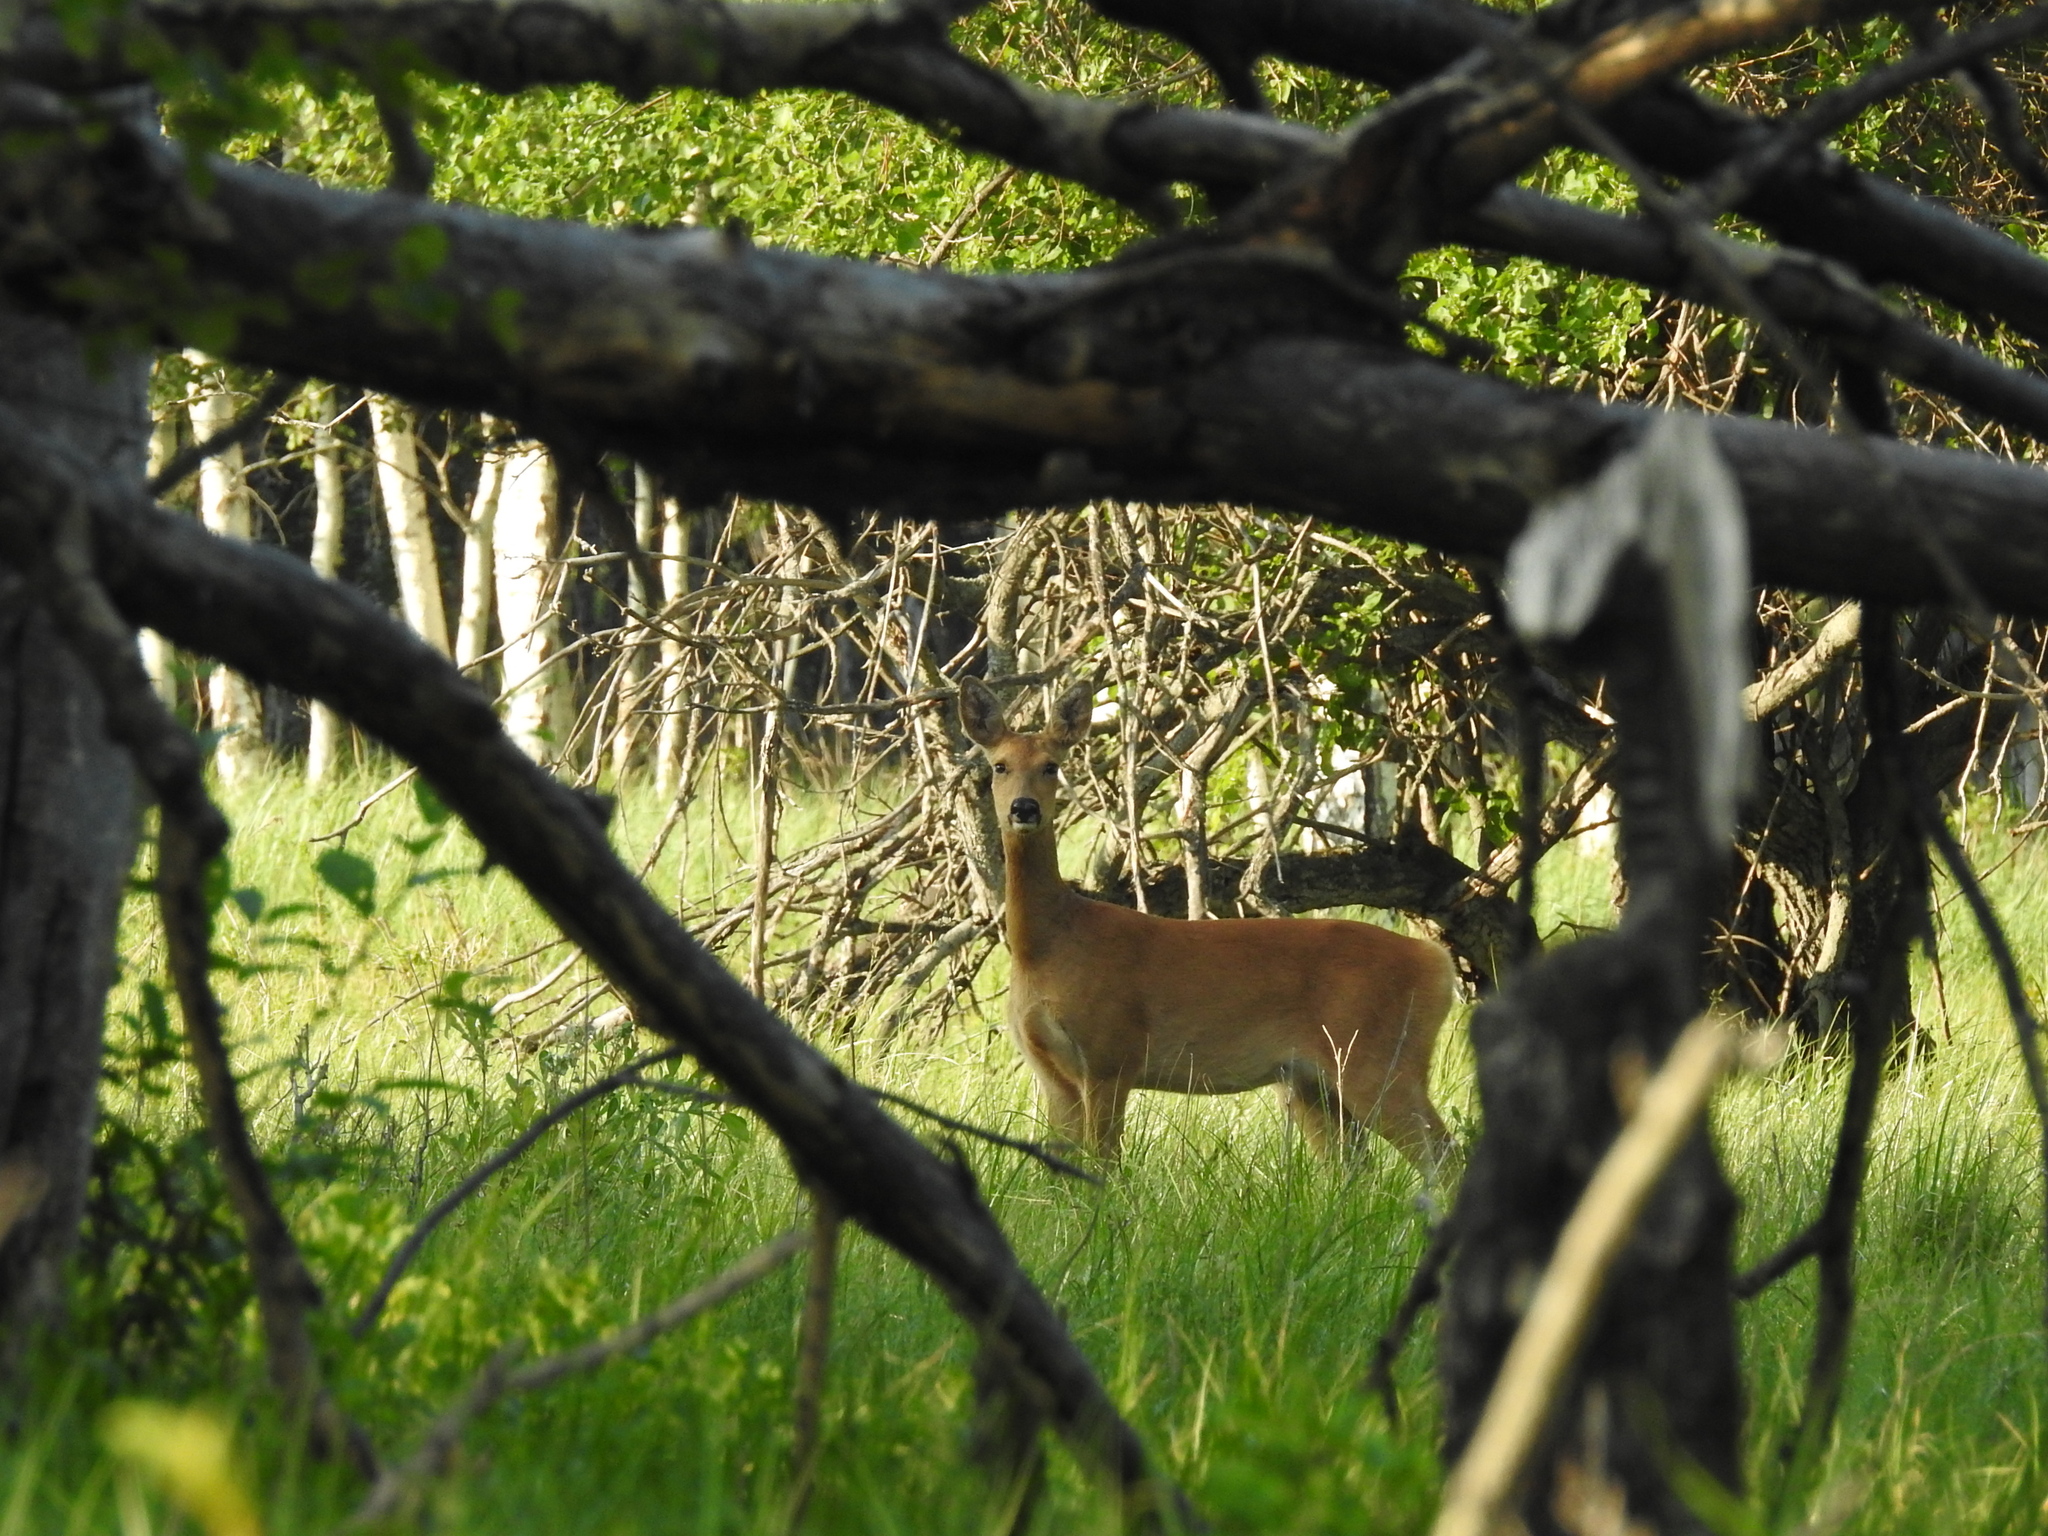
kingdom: Animalia
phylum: Chordata
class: Mammalia
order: Artiodactyla
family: Cervidae
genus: Capreolus
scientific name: Capreolus pygargus
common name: Siberian roe
